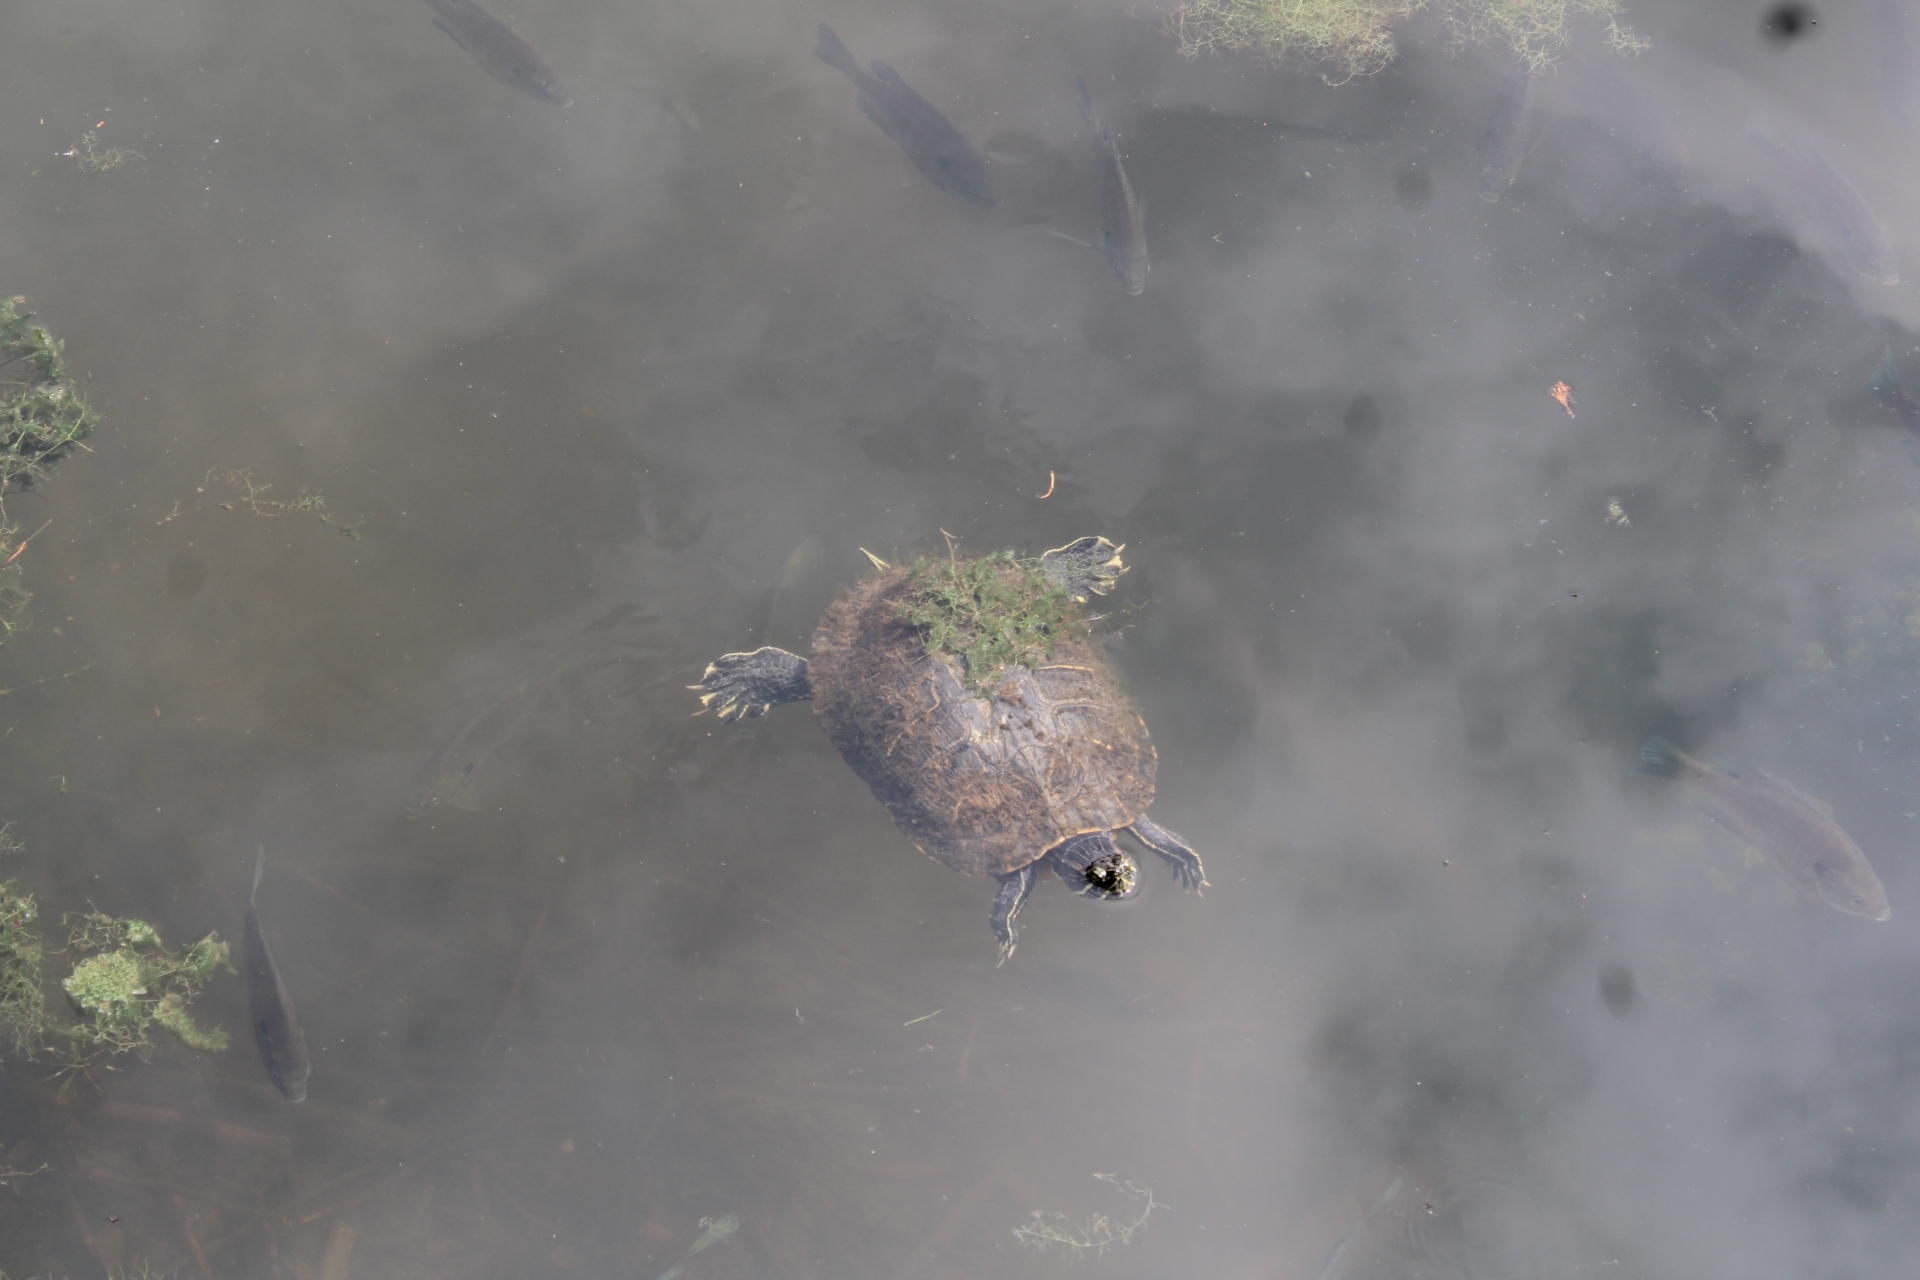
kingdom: Animalia
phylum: Chordata
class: Testudines
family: Emydidae
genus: Trachemys
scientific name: Trachemys scripta
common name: Slider
